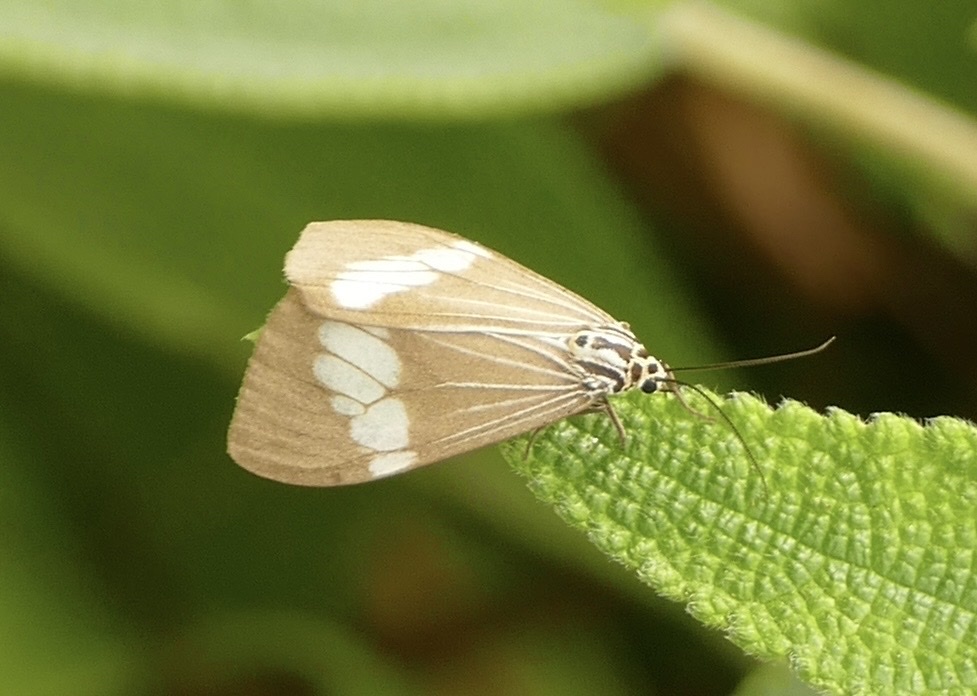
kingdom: Animalia
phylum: Arthropoda
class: Insecta
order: Lepidoptera
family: Erebidae
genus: Nyctemera
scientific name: Nyctemera baulus
